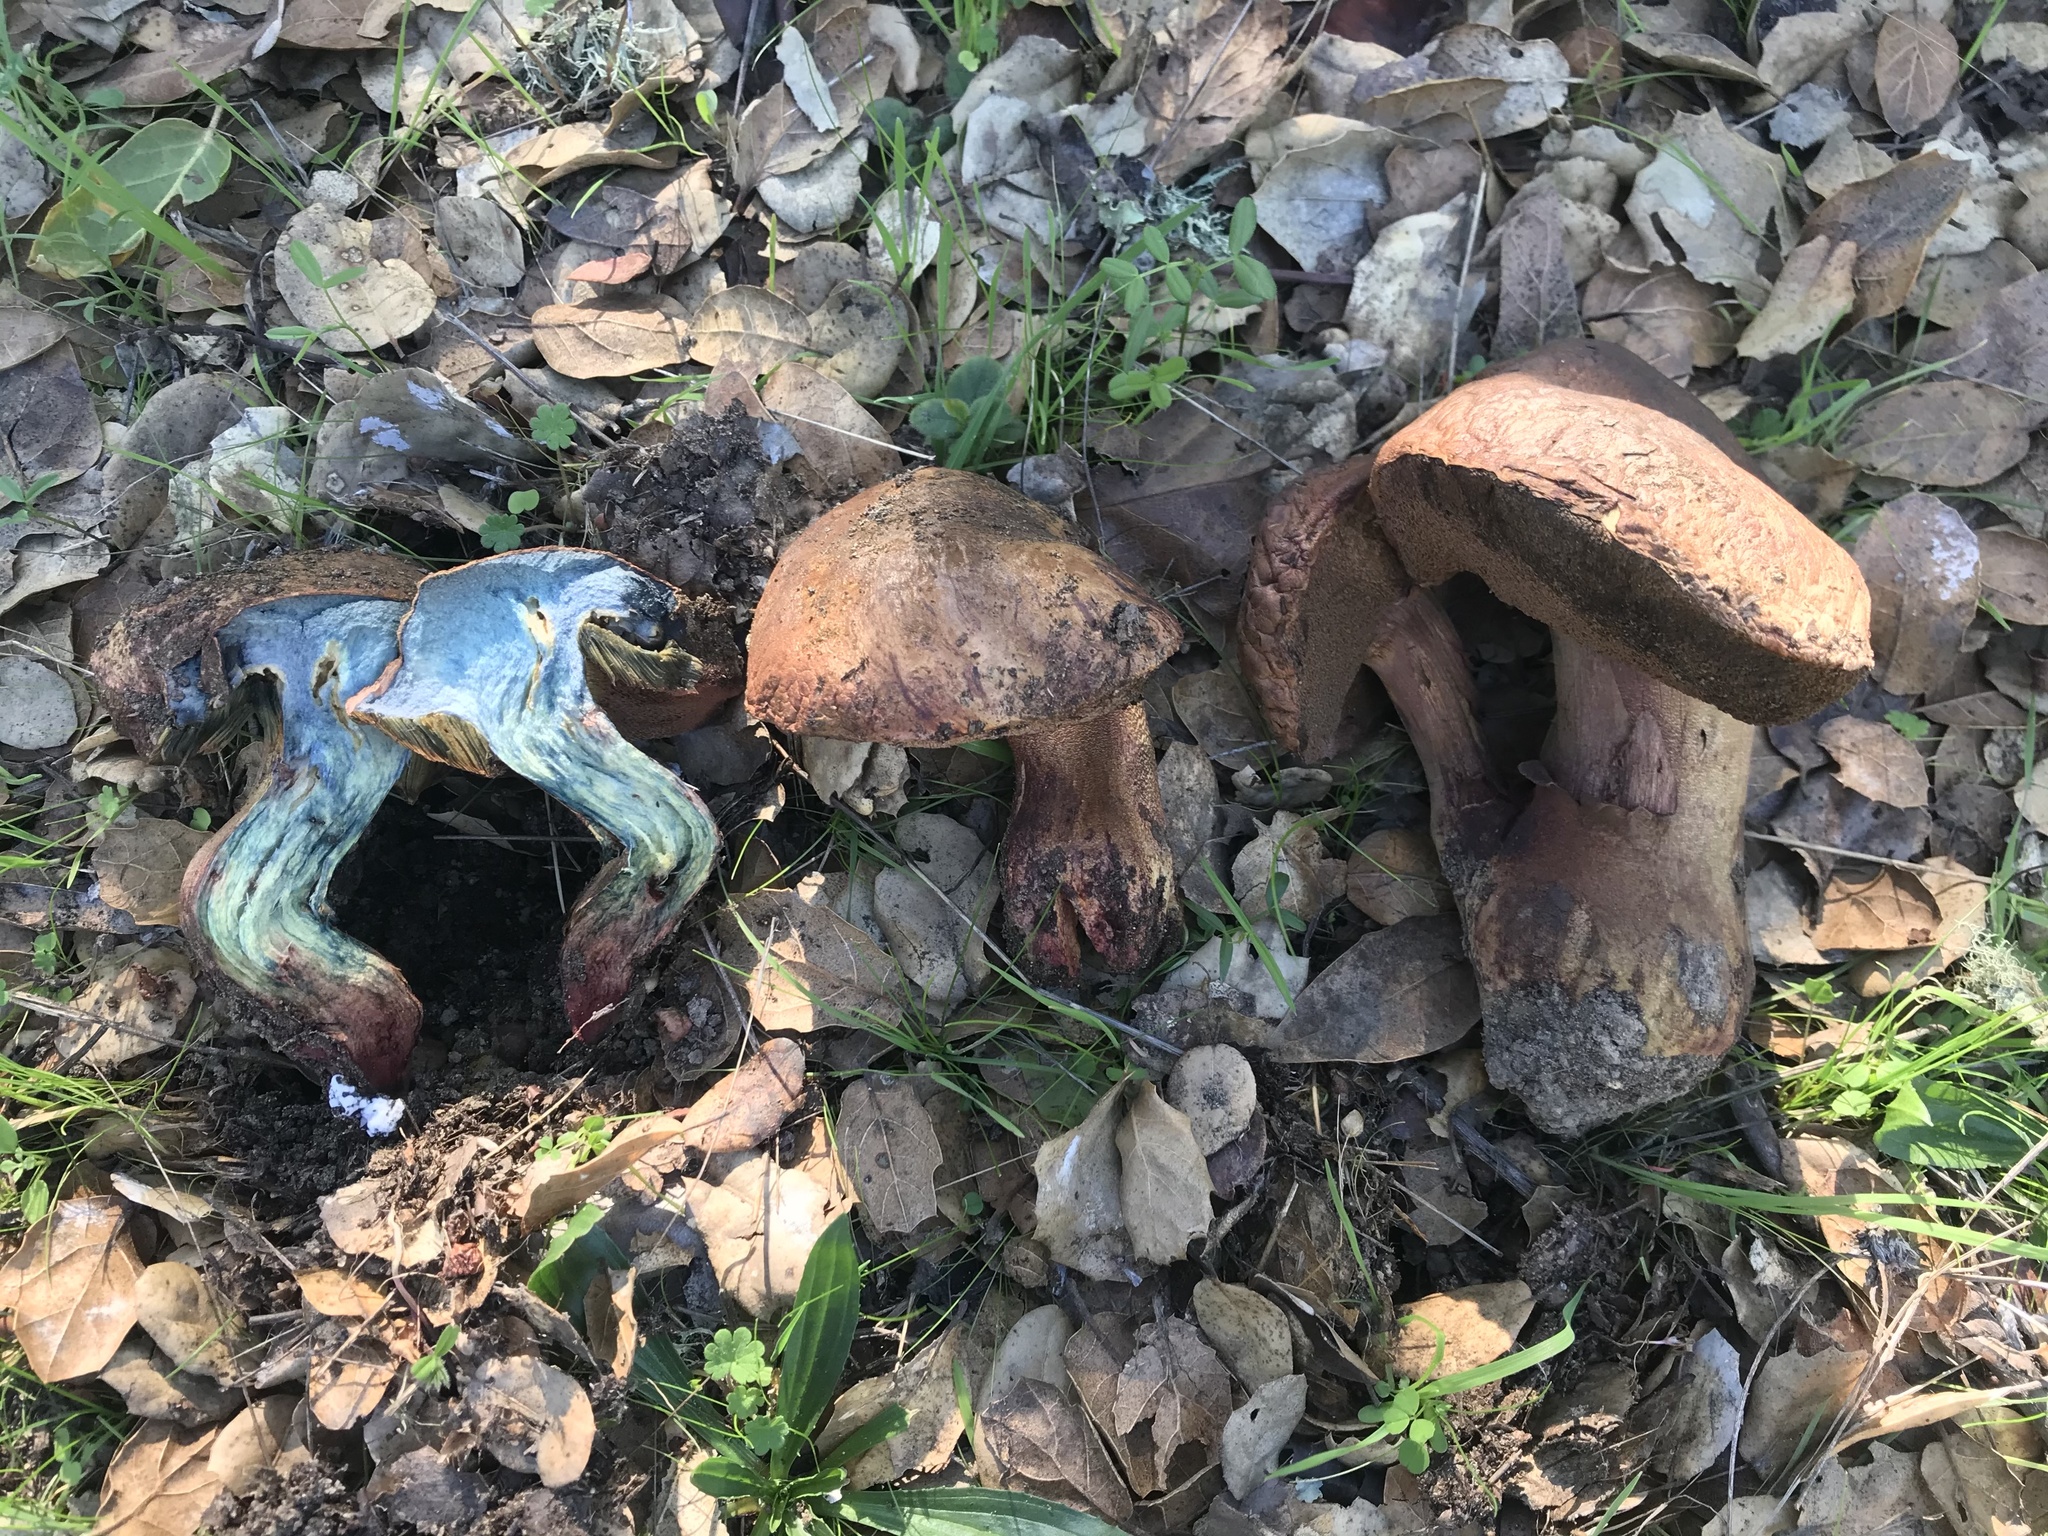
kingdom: Fungi
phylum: Basidiomycota
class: Agaricomycetes
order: Boletales
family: Boletaceae
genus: Suillellus
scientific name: Suillellus amygdalinus
